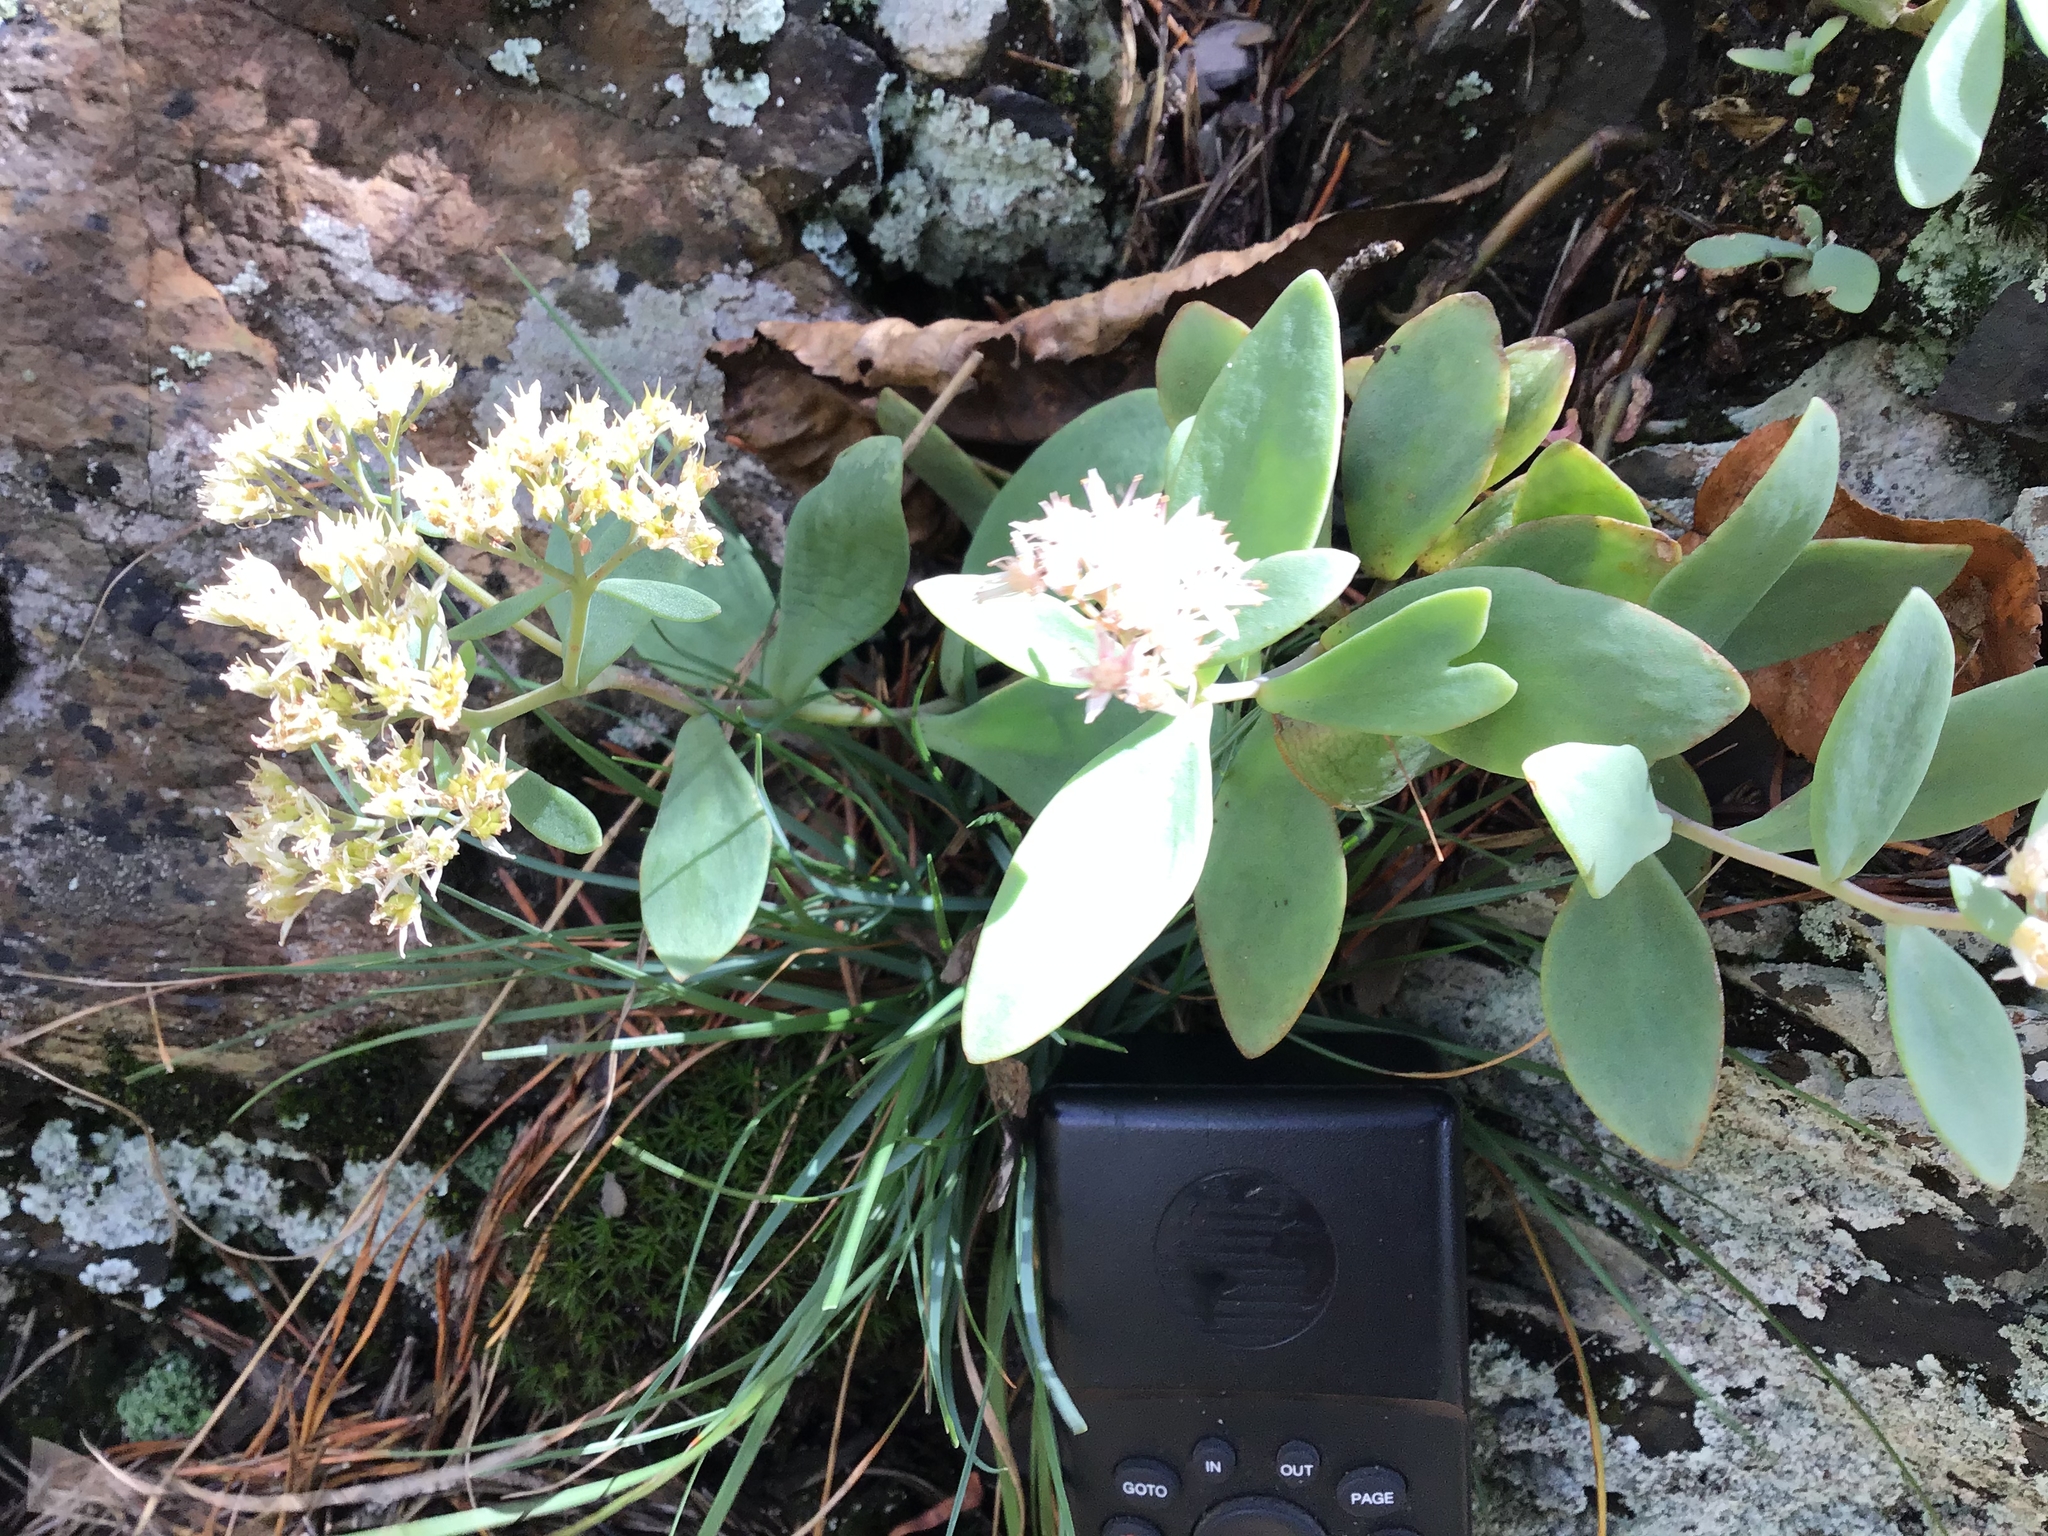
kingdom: Plantae
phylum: Tracheophyta
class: Magnoliopsida
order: Saxifragales
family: Crassulaceae
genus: Hylotelephium
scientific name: Hylotelephium telephioides
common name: Allegheny stonecrop
